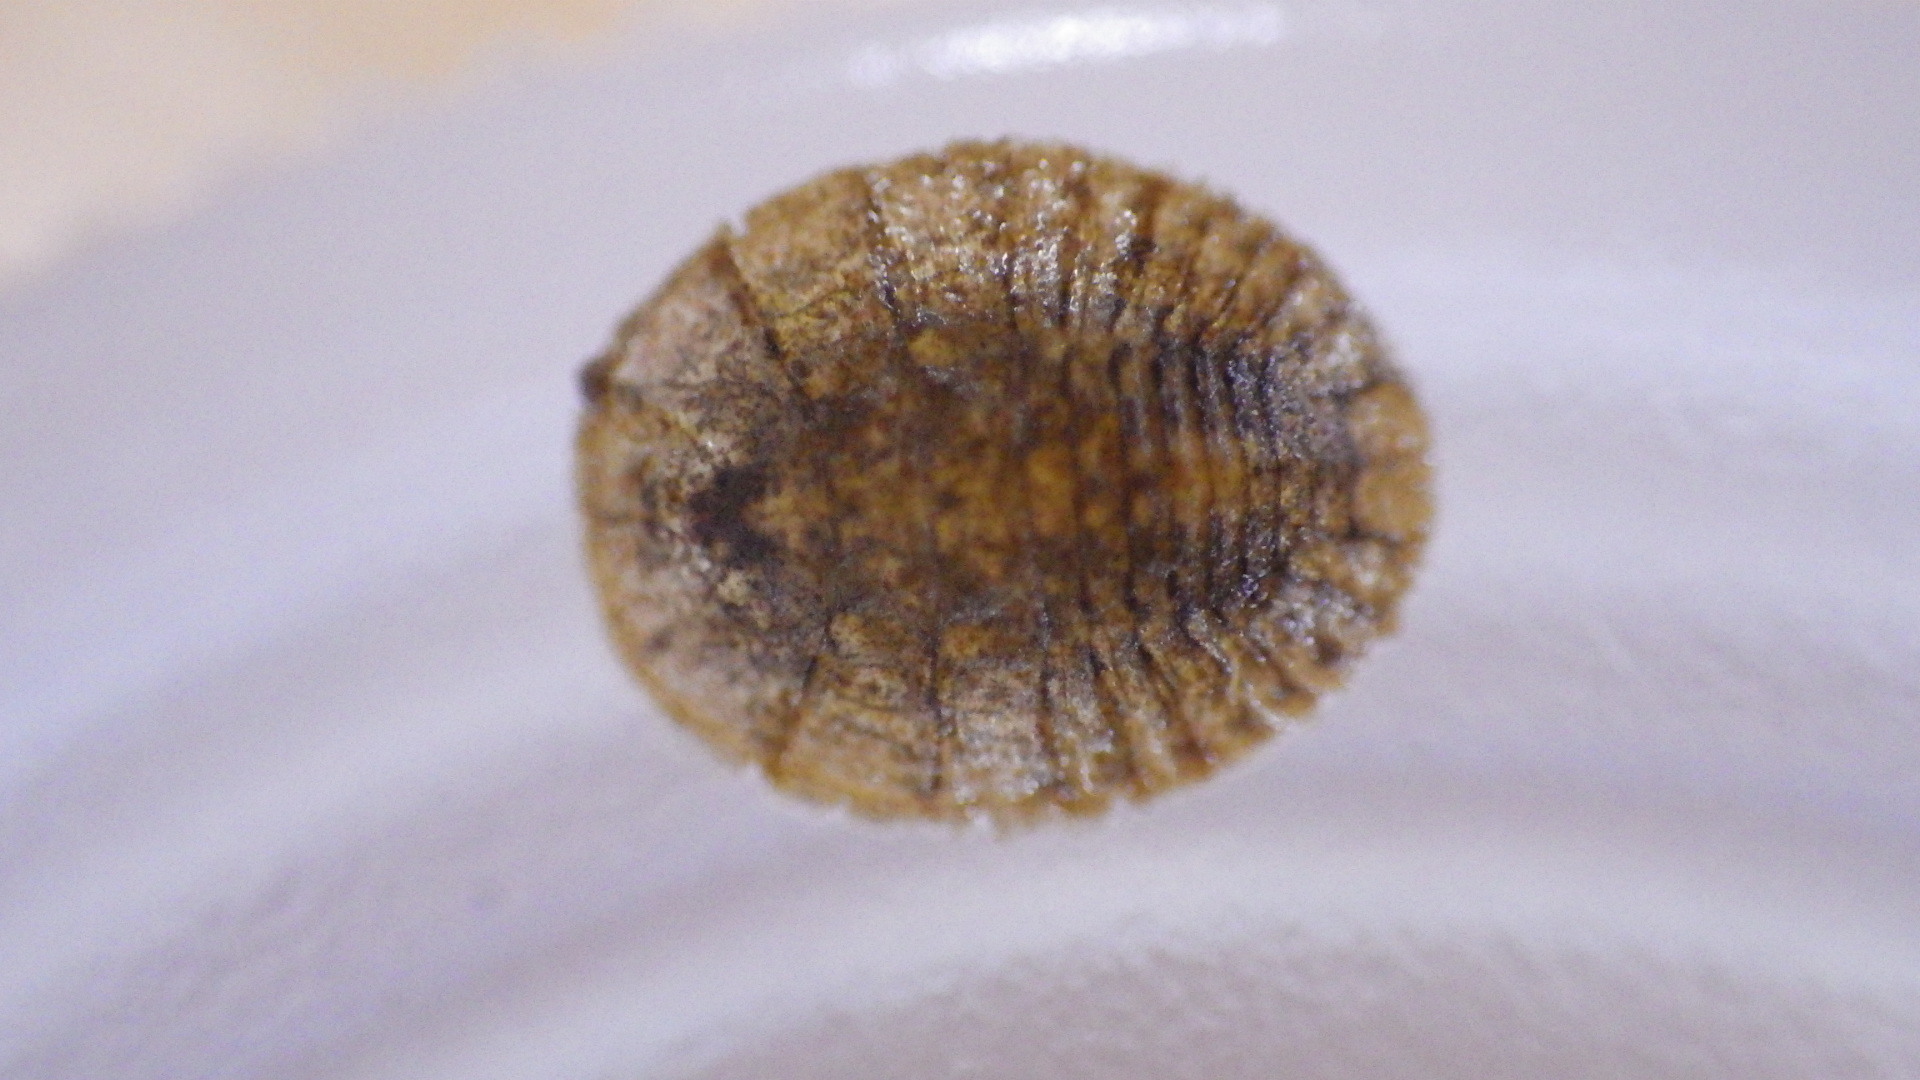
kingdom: Animalia
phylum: Arthropoda
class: Insecta
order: Coleoptera
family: Psephenidae
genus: Psephenus
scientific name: Psephenus herricki
